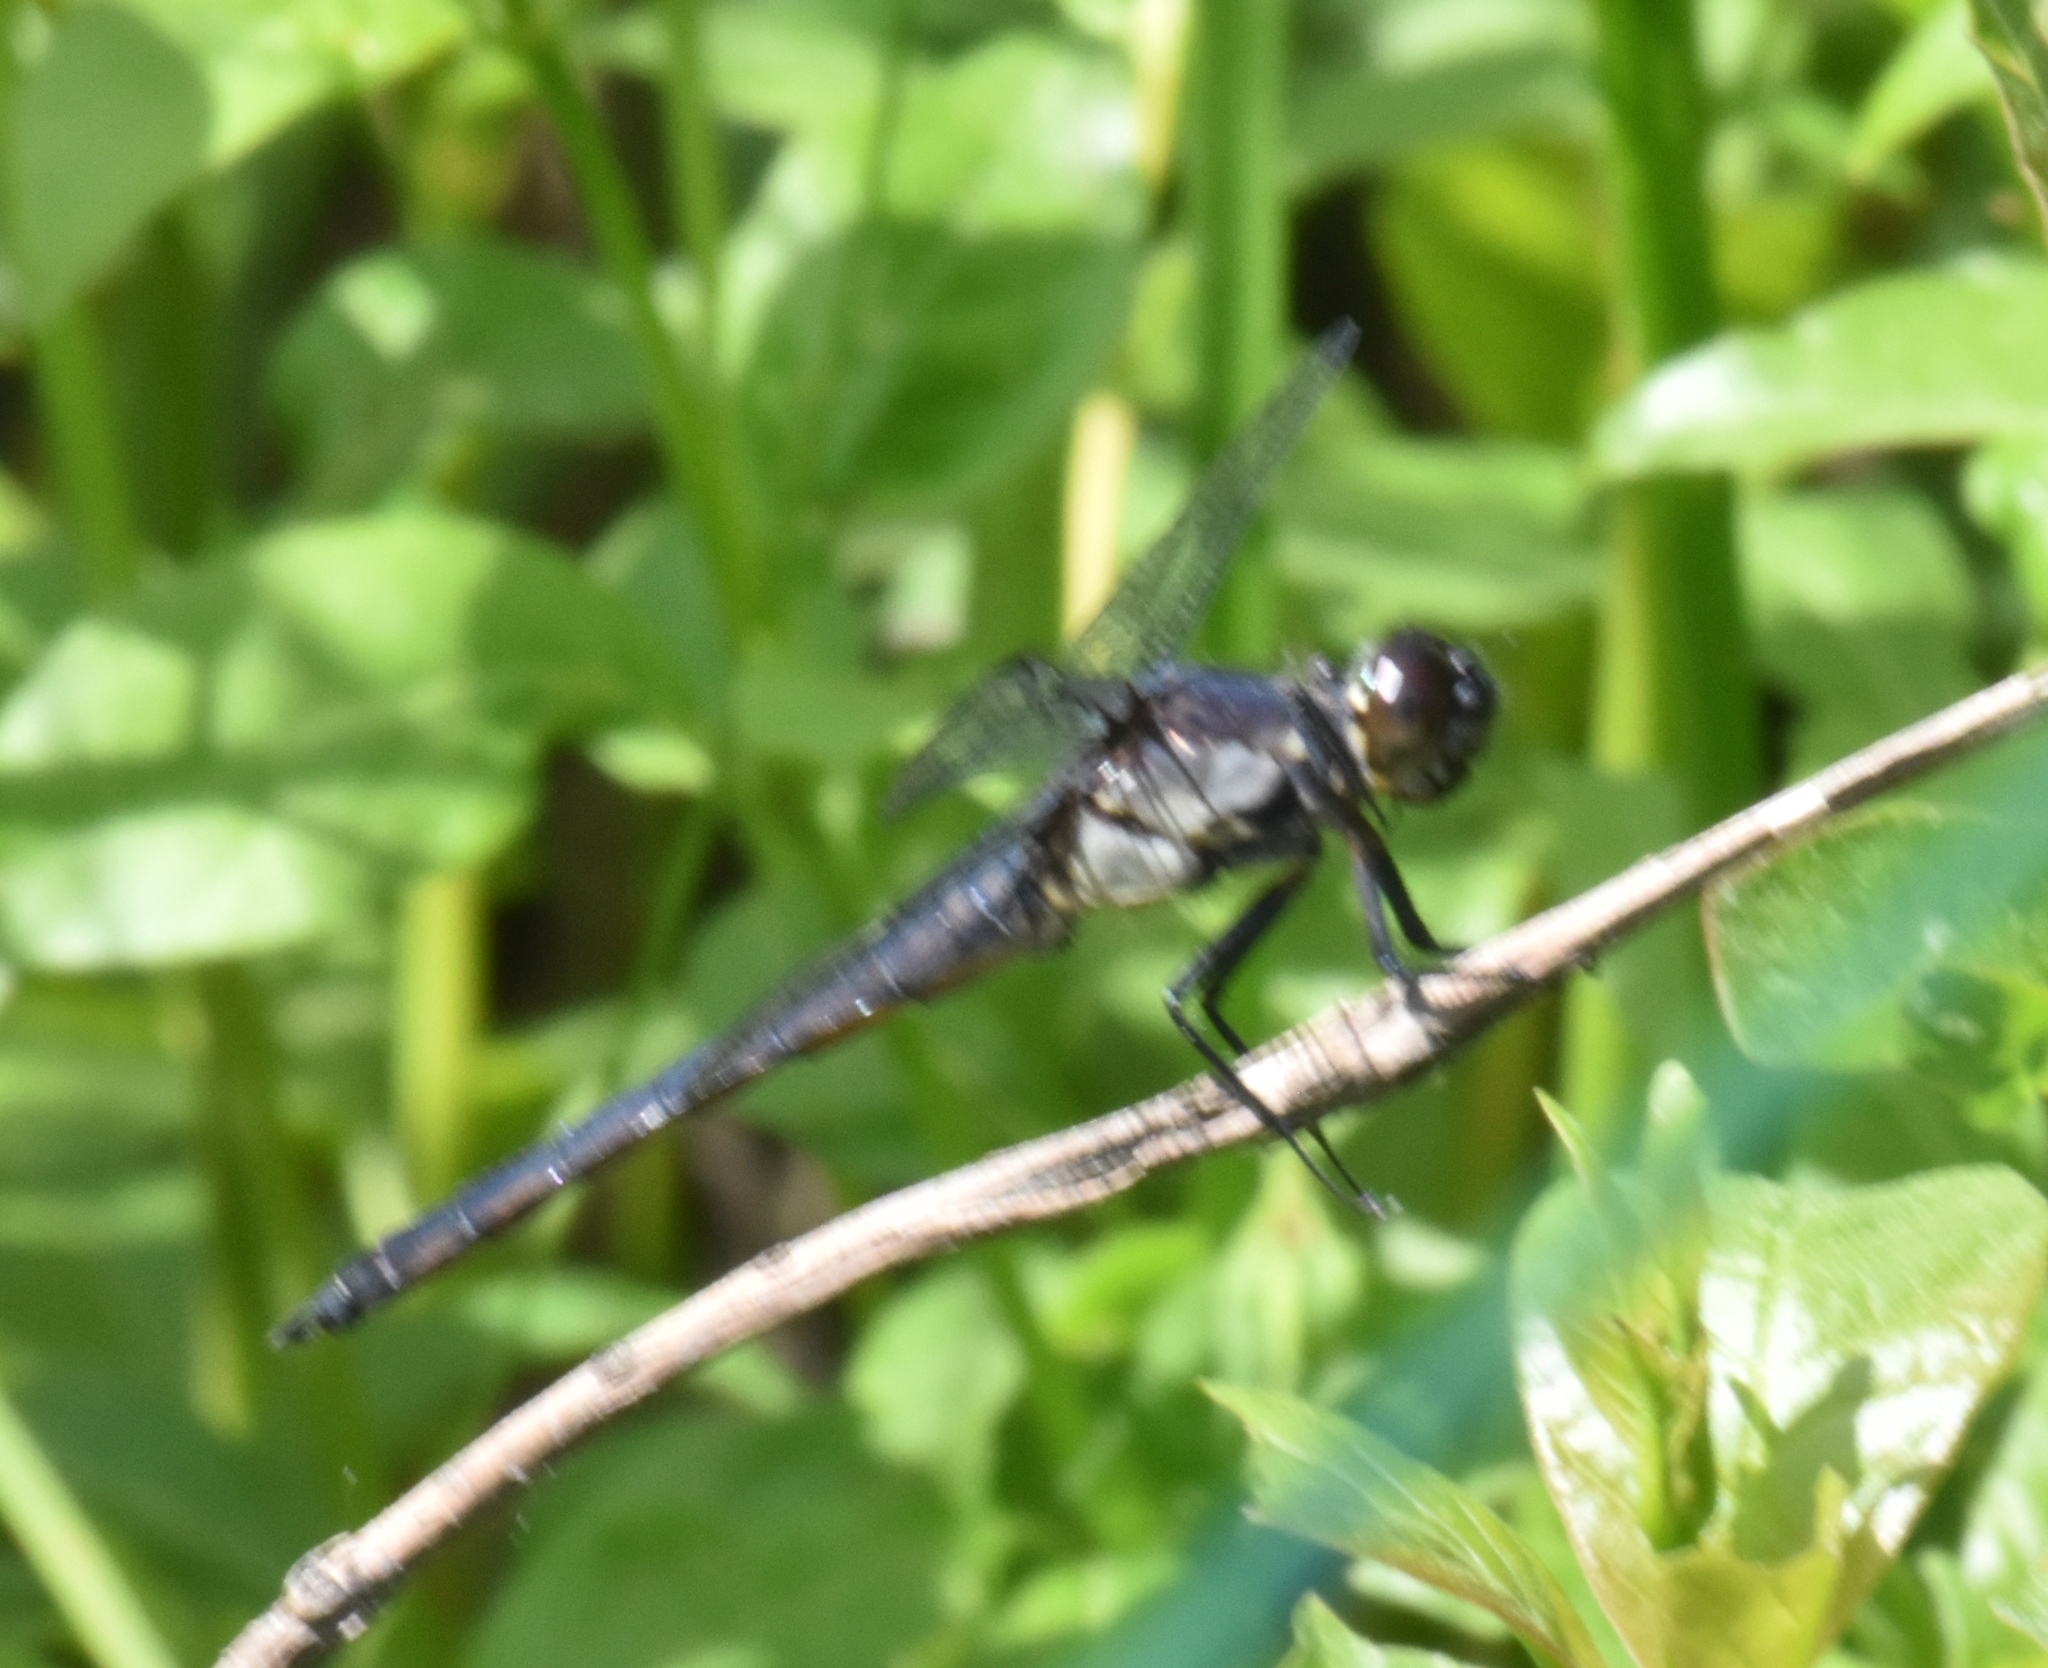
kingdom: Animalia
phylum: Arthropoda
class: Insecta
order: Odonata
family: Libellulidae
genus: Libellula
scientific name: Libellula incesta
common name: Slaty skimmer
